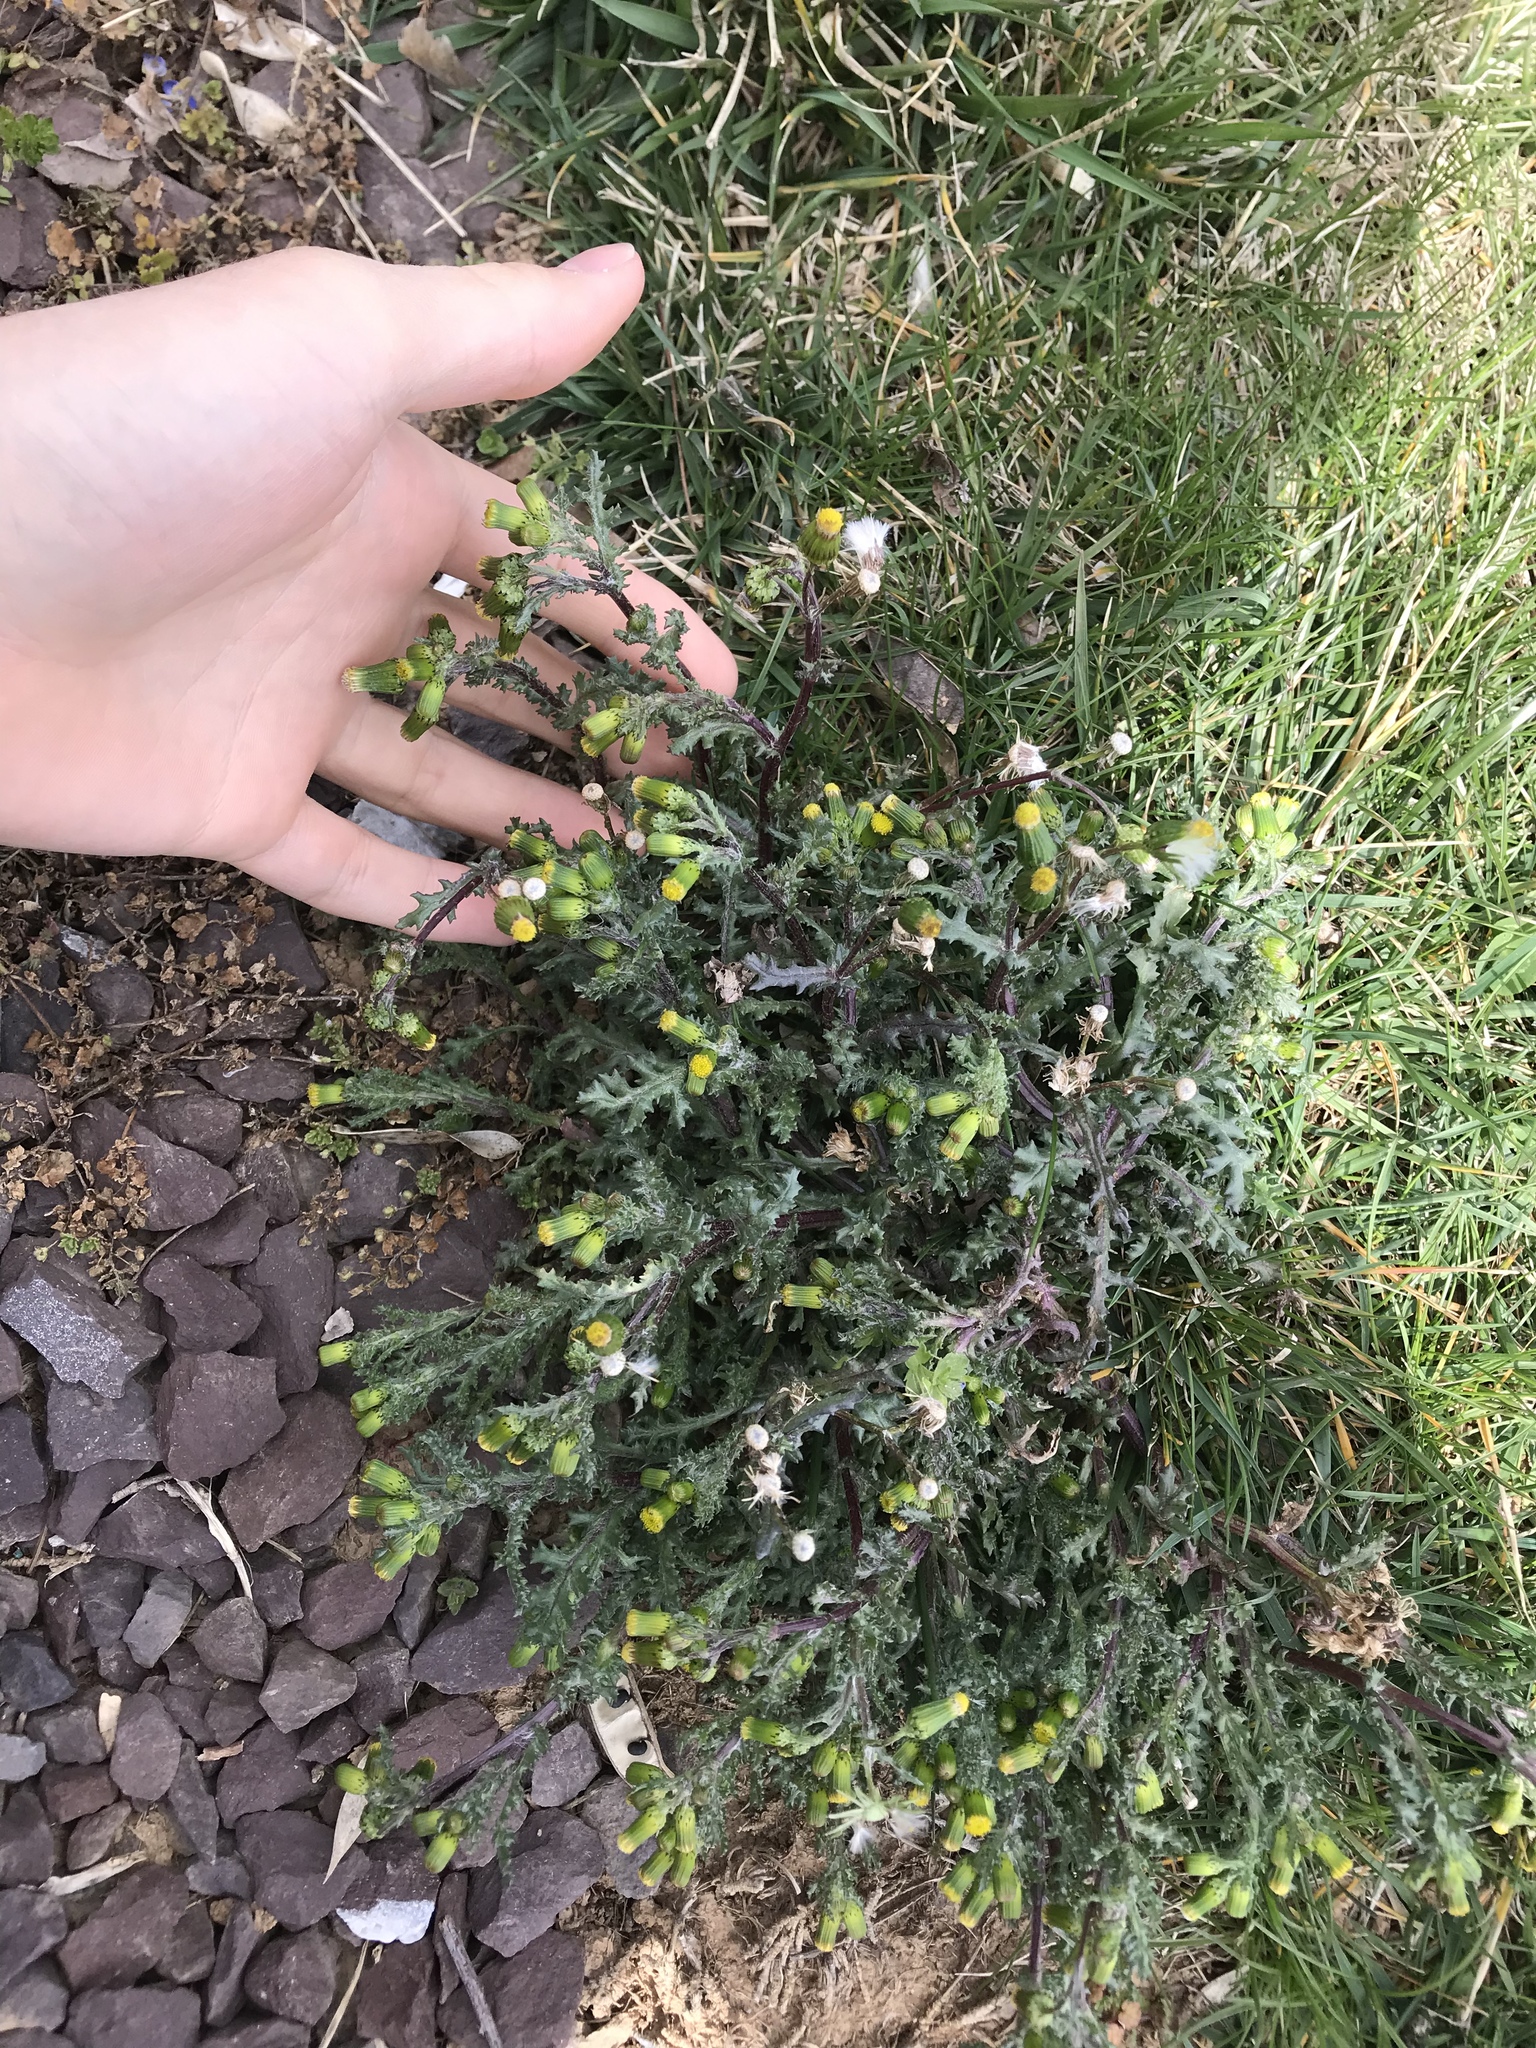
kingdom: Plantae
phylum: Tracheophyta
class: Magnoliopsida
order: Asterales
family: Asteraceae
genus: Senecio
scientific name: Senecio vulgaris
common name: Old-man-in-the-spring
